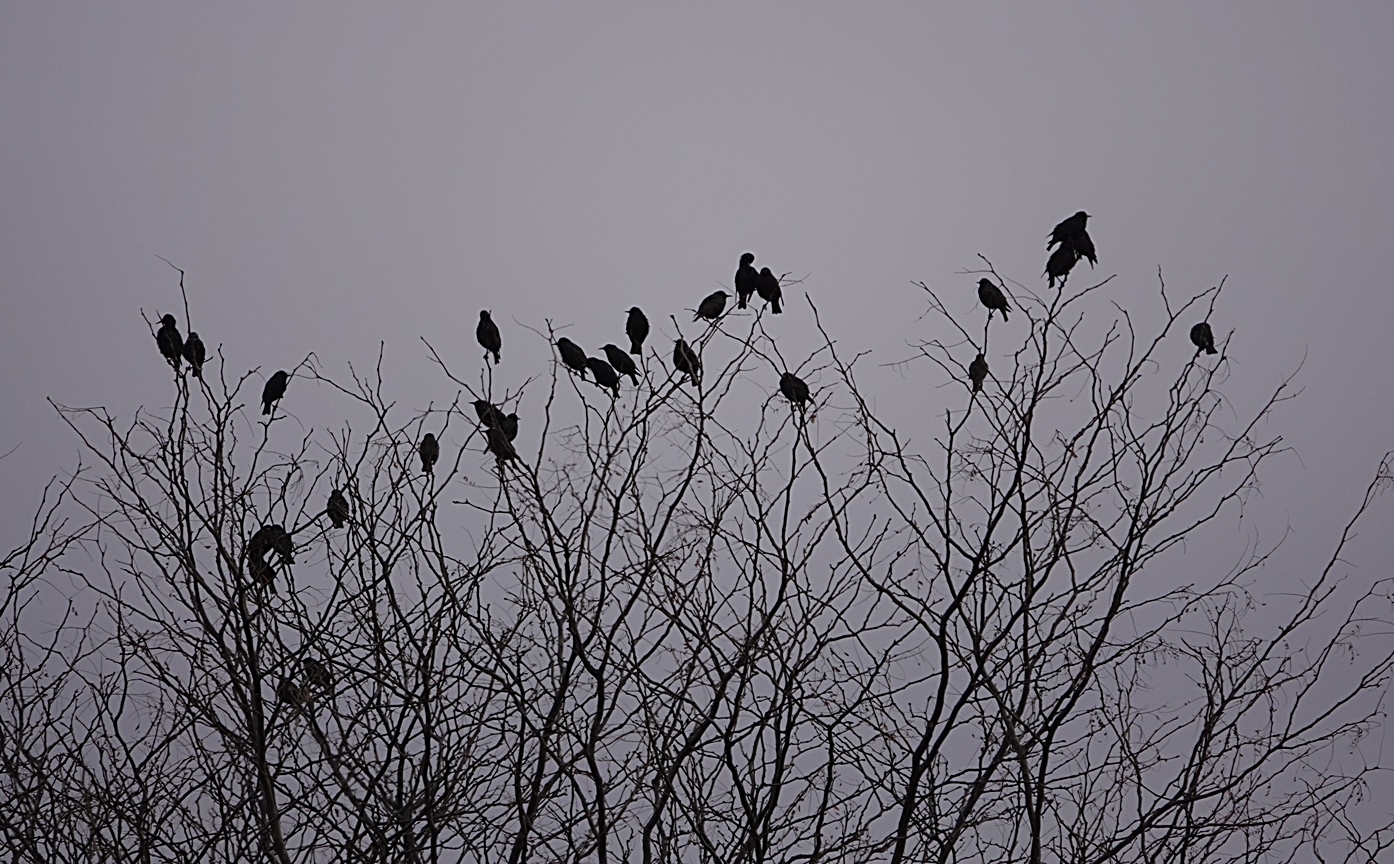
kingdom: Animalia
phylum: Chordata
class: Aves
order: Passeriformes
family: Sturnidae
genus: Sturnus
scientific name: Sturnus vulgaris
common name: Common starling
